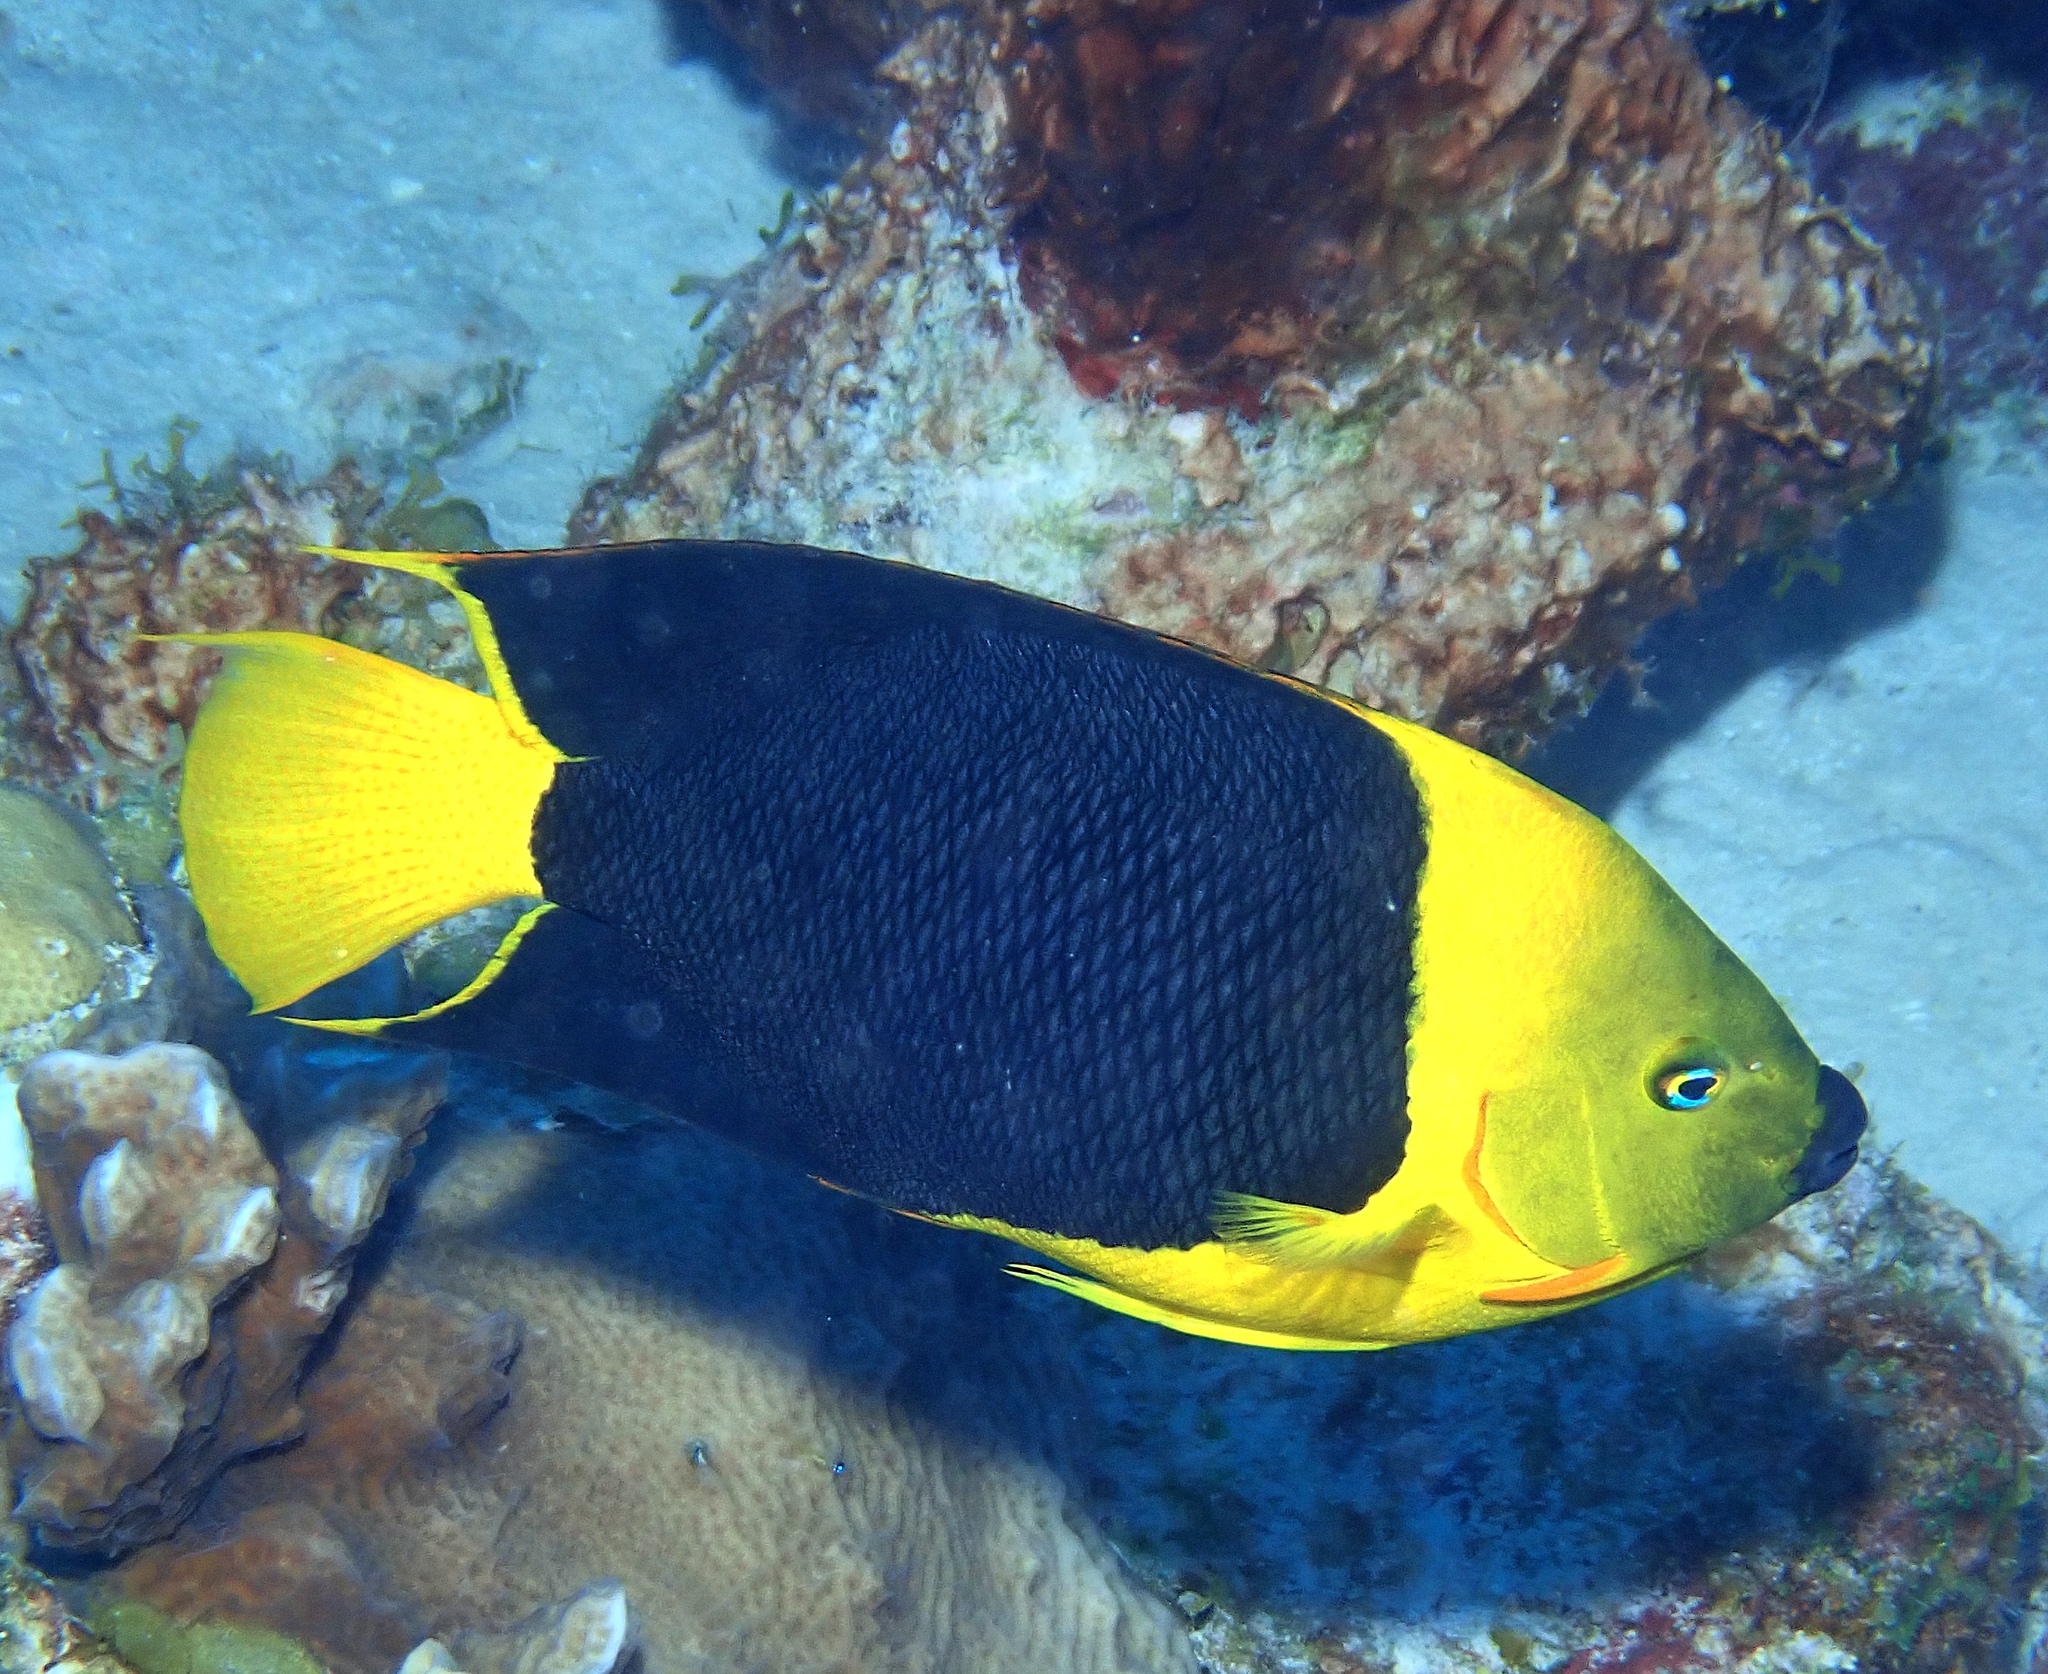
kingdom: Animalia
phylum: Chordata
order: Perciformes
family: Pomacanthidae
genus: Holacanthus
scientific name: Holacanthus tricolor
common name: Rock beauty
